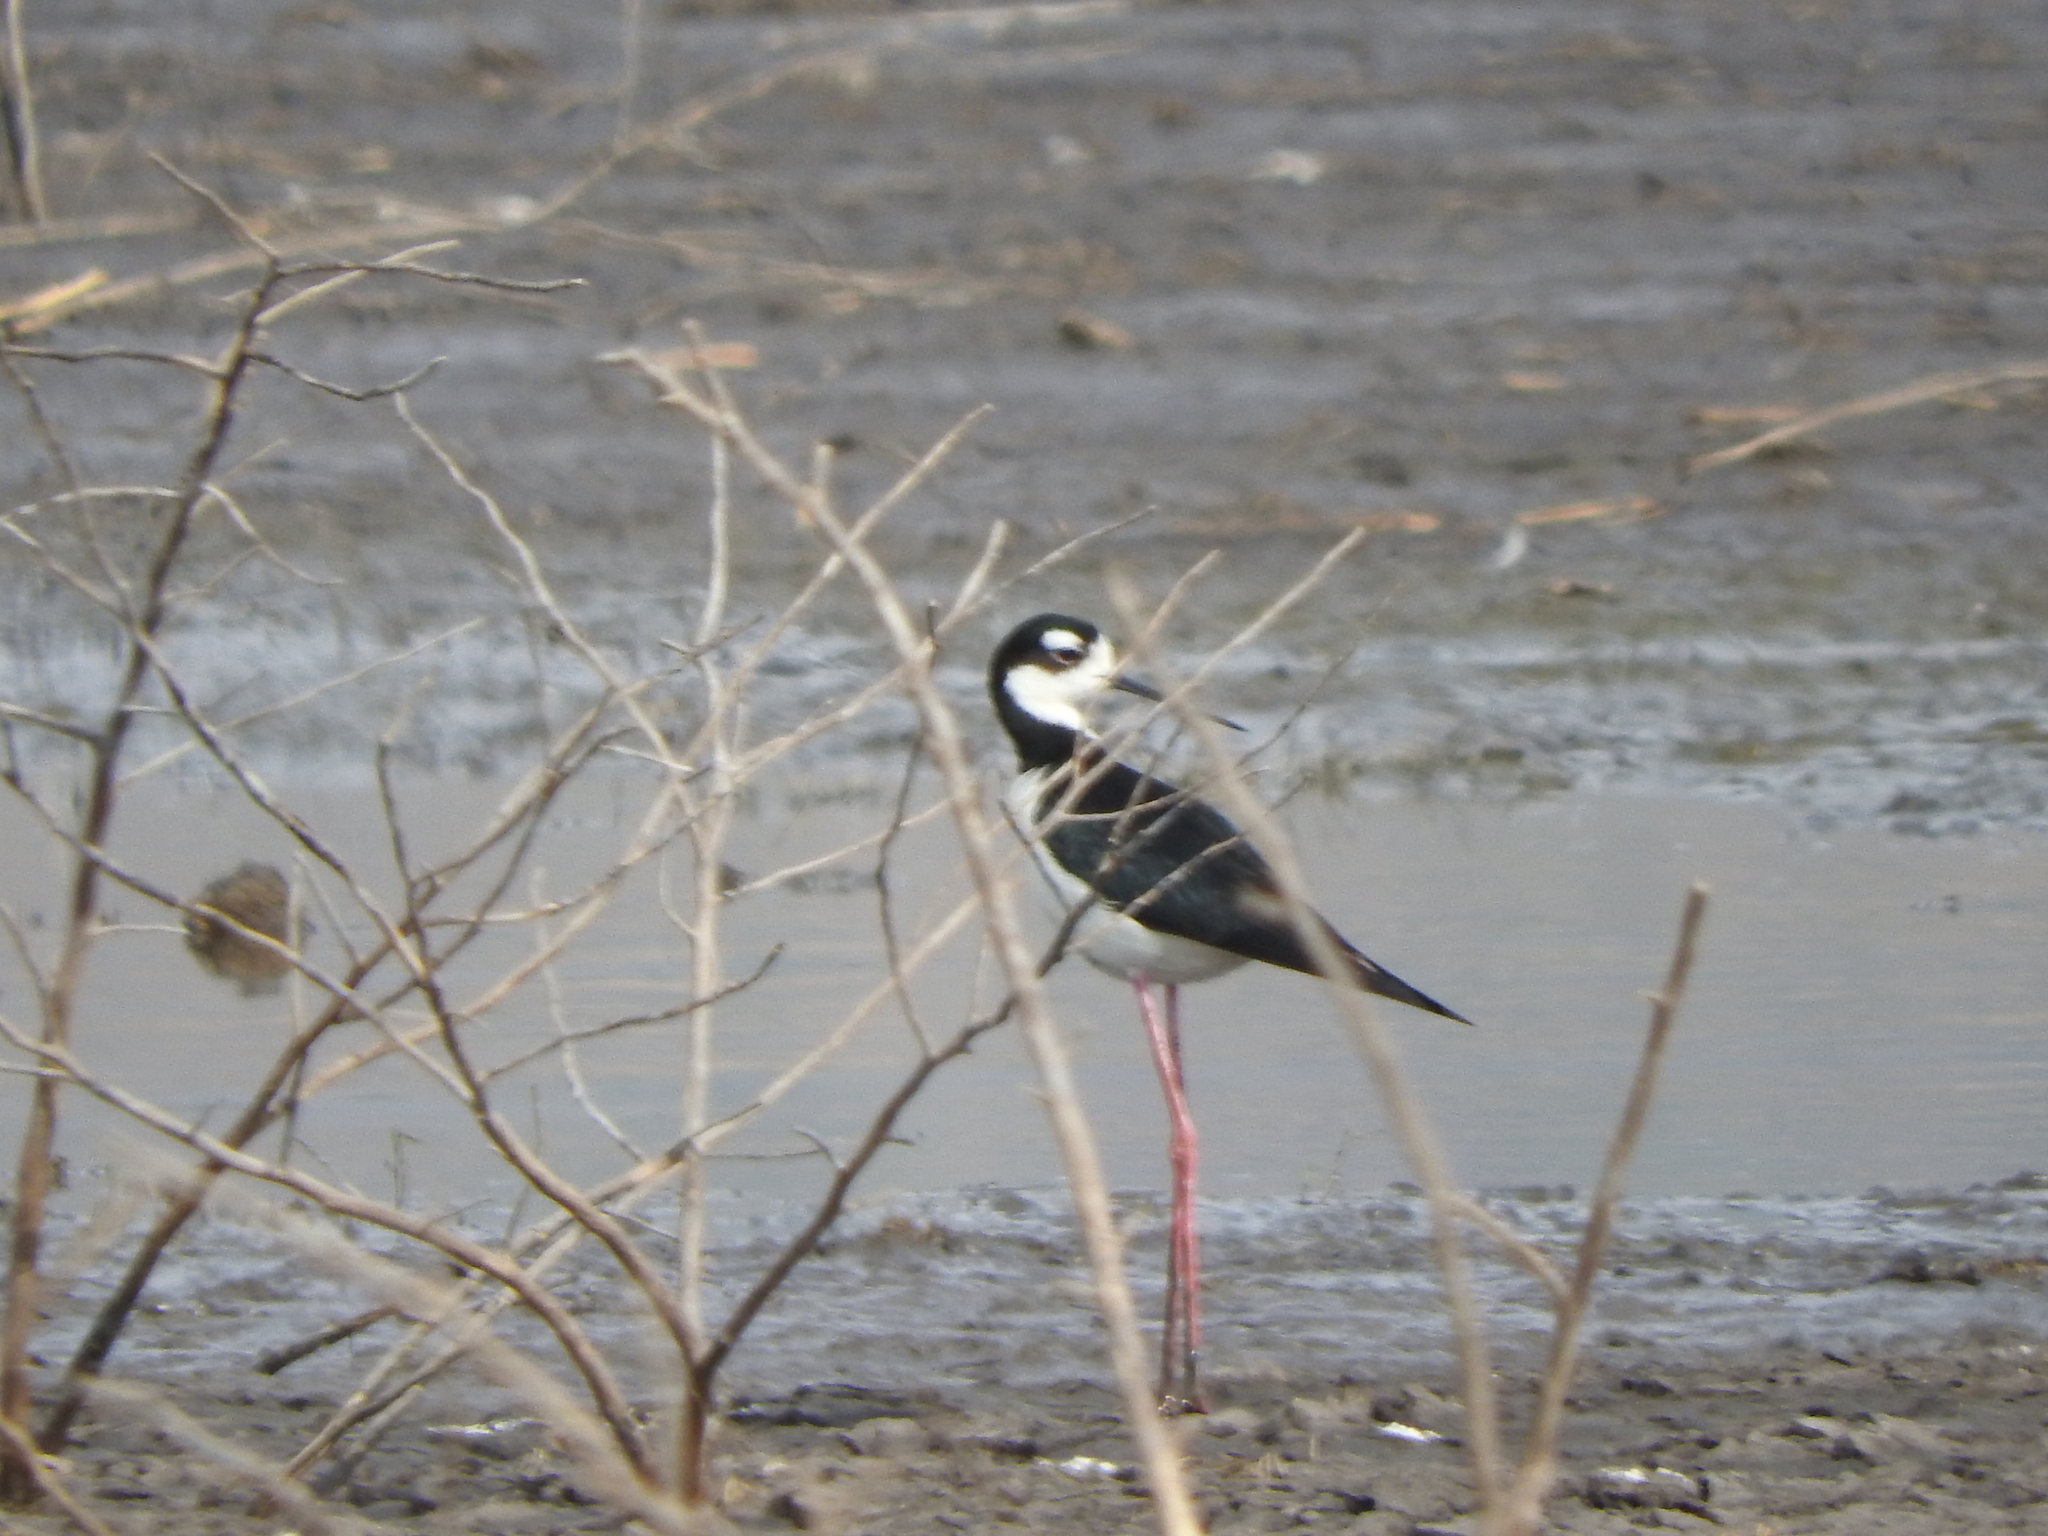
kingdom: Animalia
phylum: Chordata
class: Aves
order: Charadriiformes
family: Recurvirostridae
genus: Himantopus
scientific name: Himantopus mexicanus
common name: Black-necked stilt
